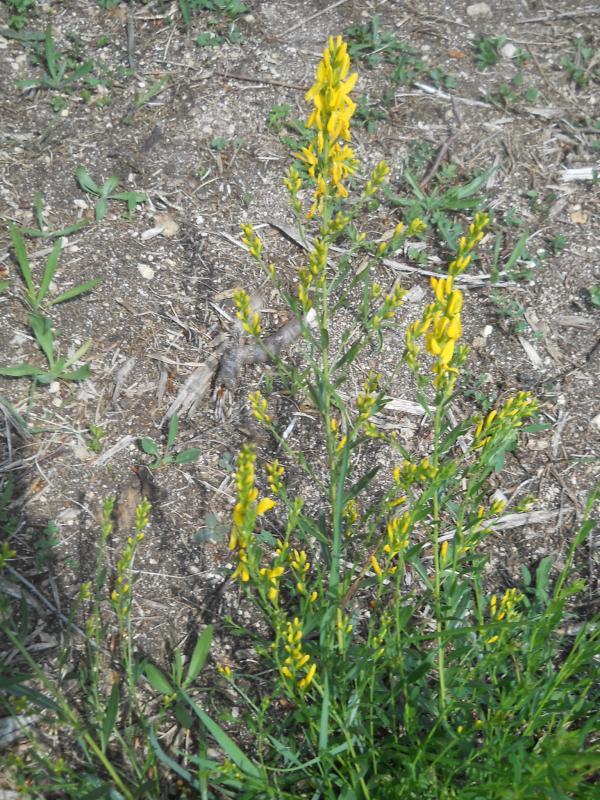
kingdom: Plantae
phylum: Tracheophyta
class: Magnoliopsida
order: Fabales
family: Fabaceae
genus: Genista
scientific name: Genista tinctoria
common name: Dyer's greenweed
